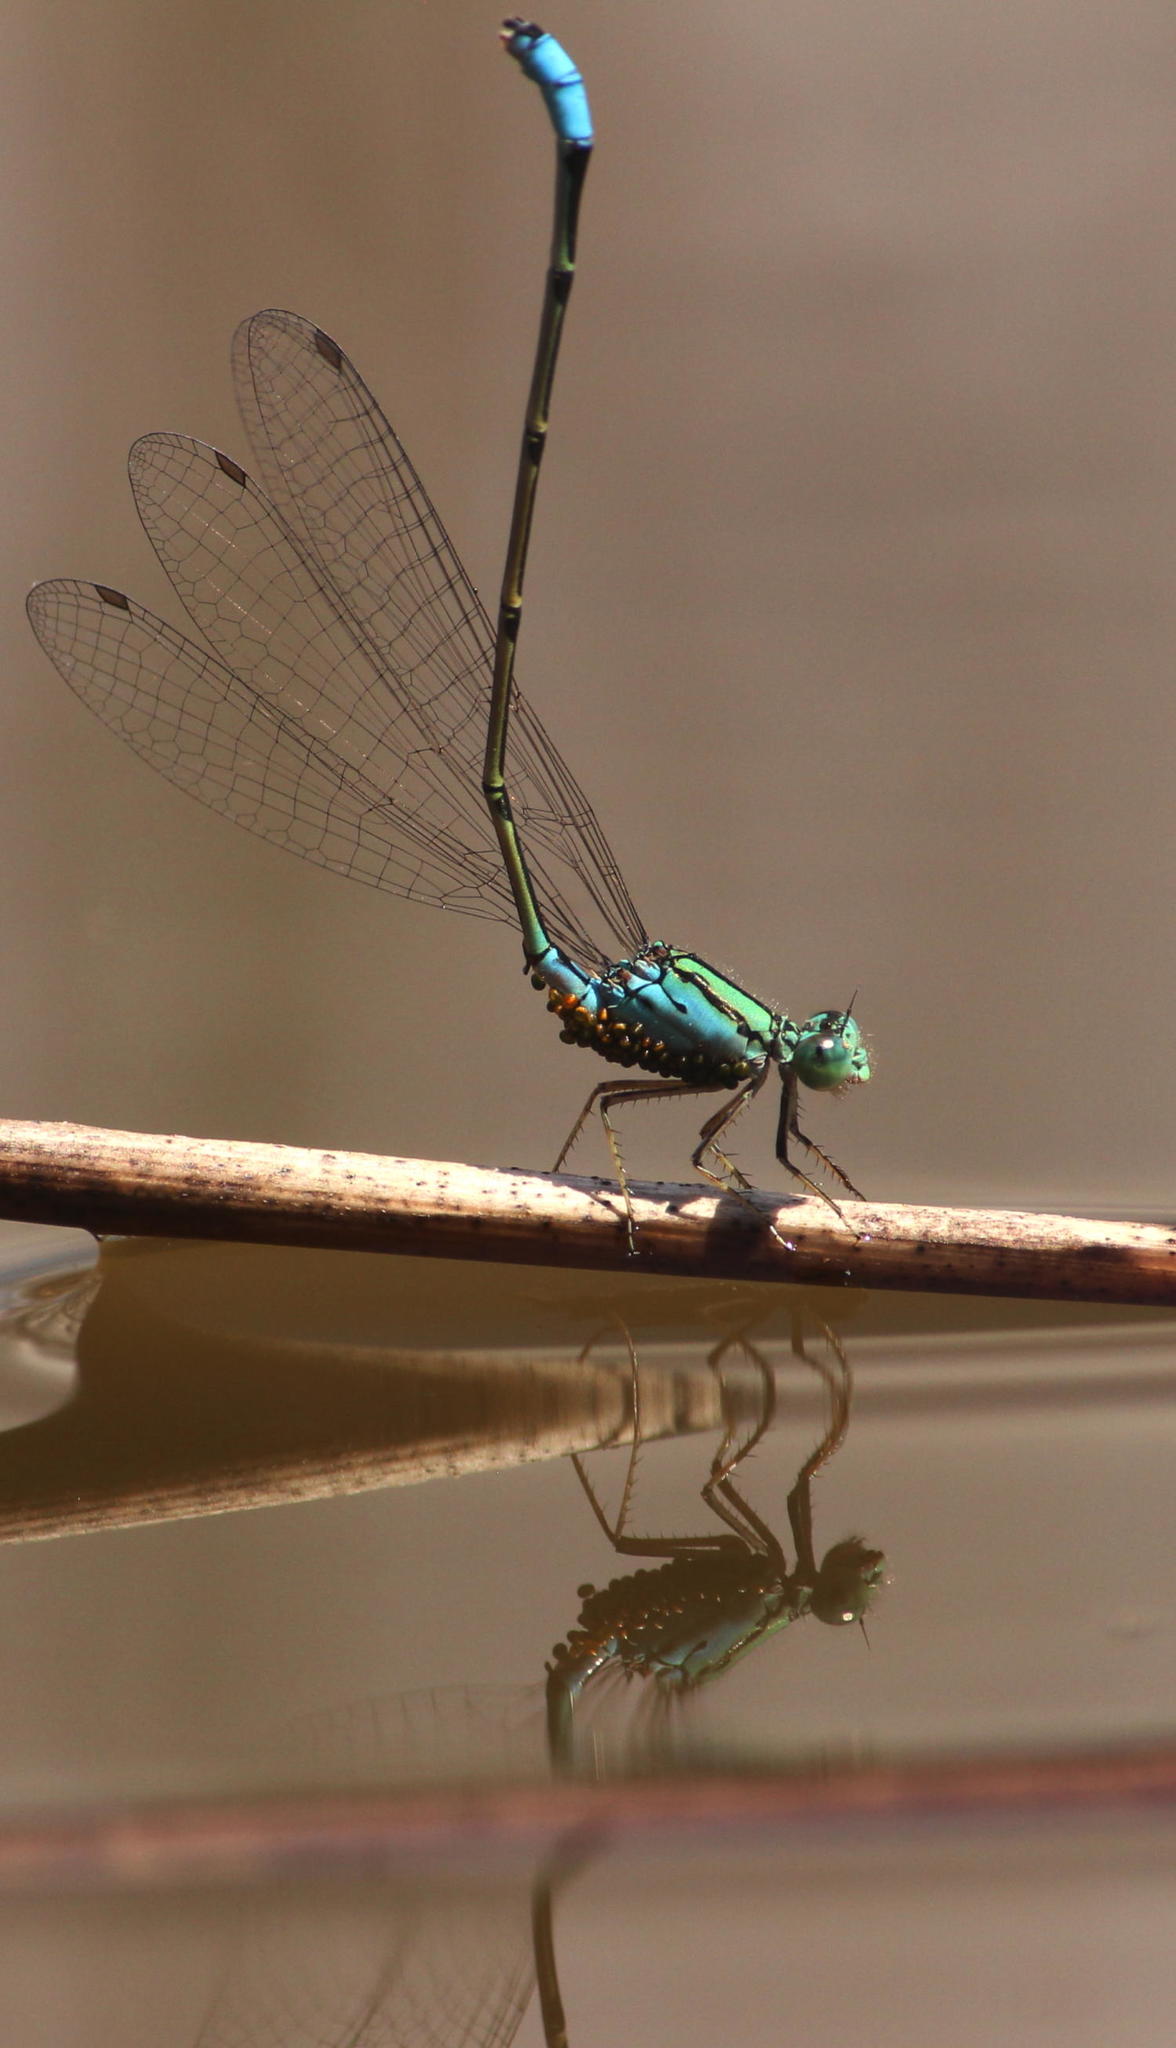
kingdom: Animalia
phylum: Arthropoda
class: Insecta
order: Odonata
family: Coenagrionidae
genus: Pseudagrion
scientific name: Pseudagrion coeleste
